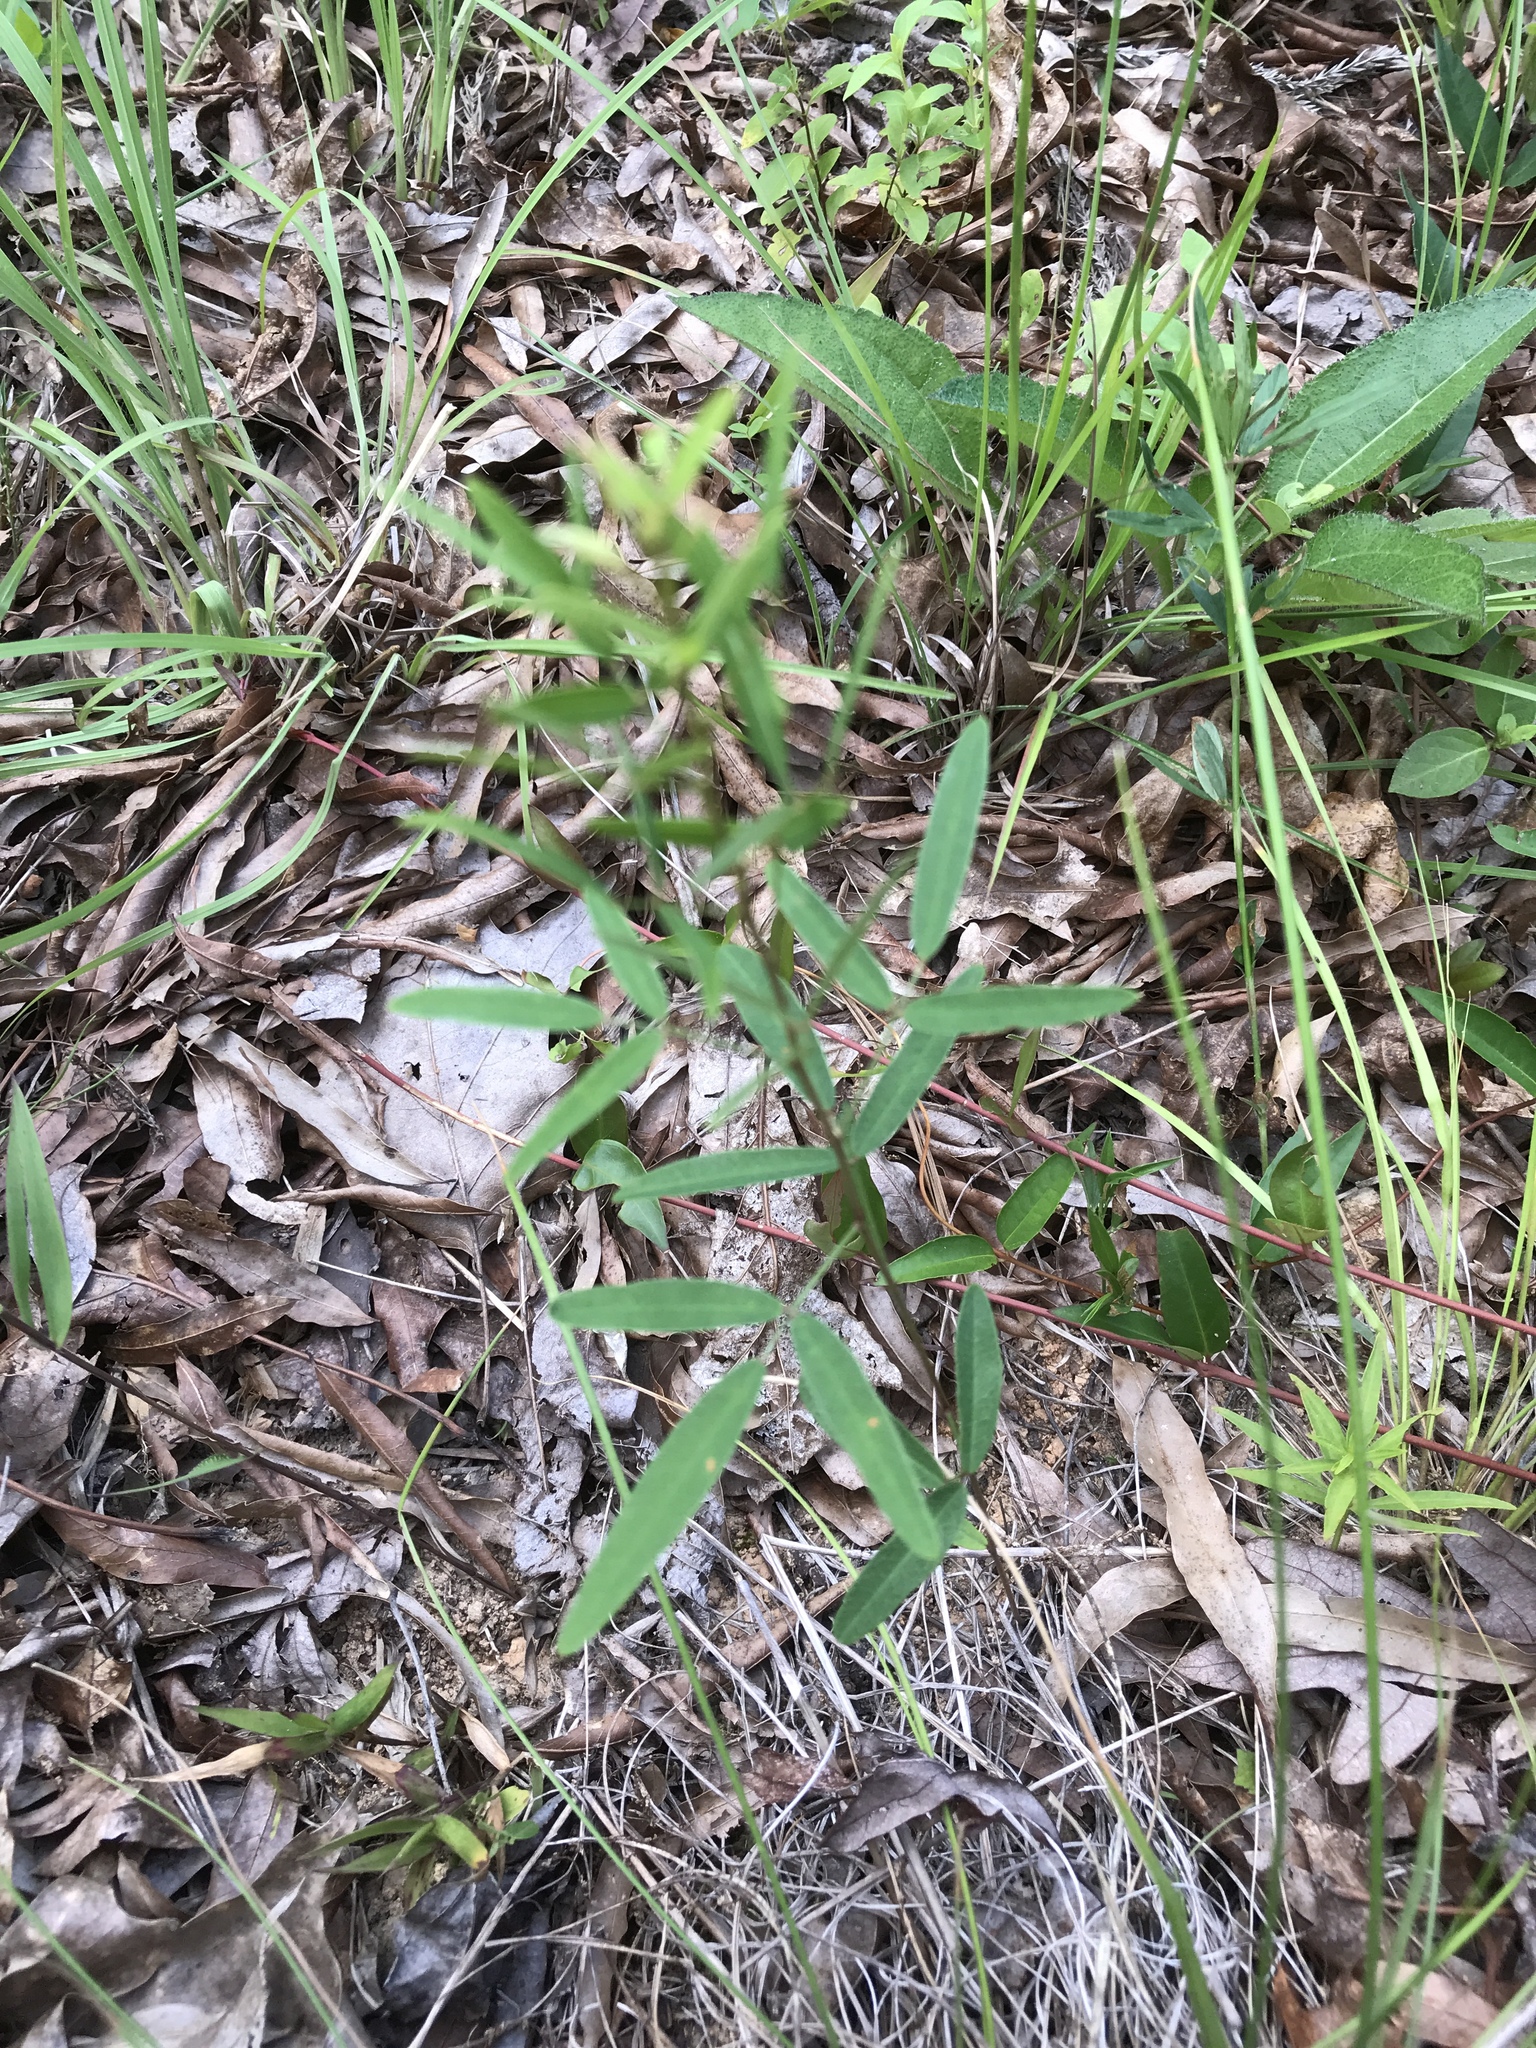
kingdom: Plantae
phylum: Tracheophyta
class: Magnoliopsida
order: Fabales
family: Fabaceae
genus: Lespedeza
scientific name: Lespedeza virginica
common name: Slender bush-clover
